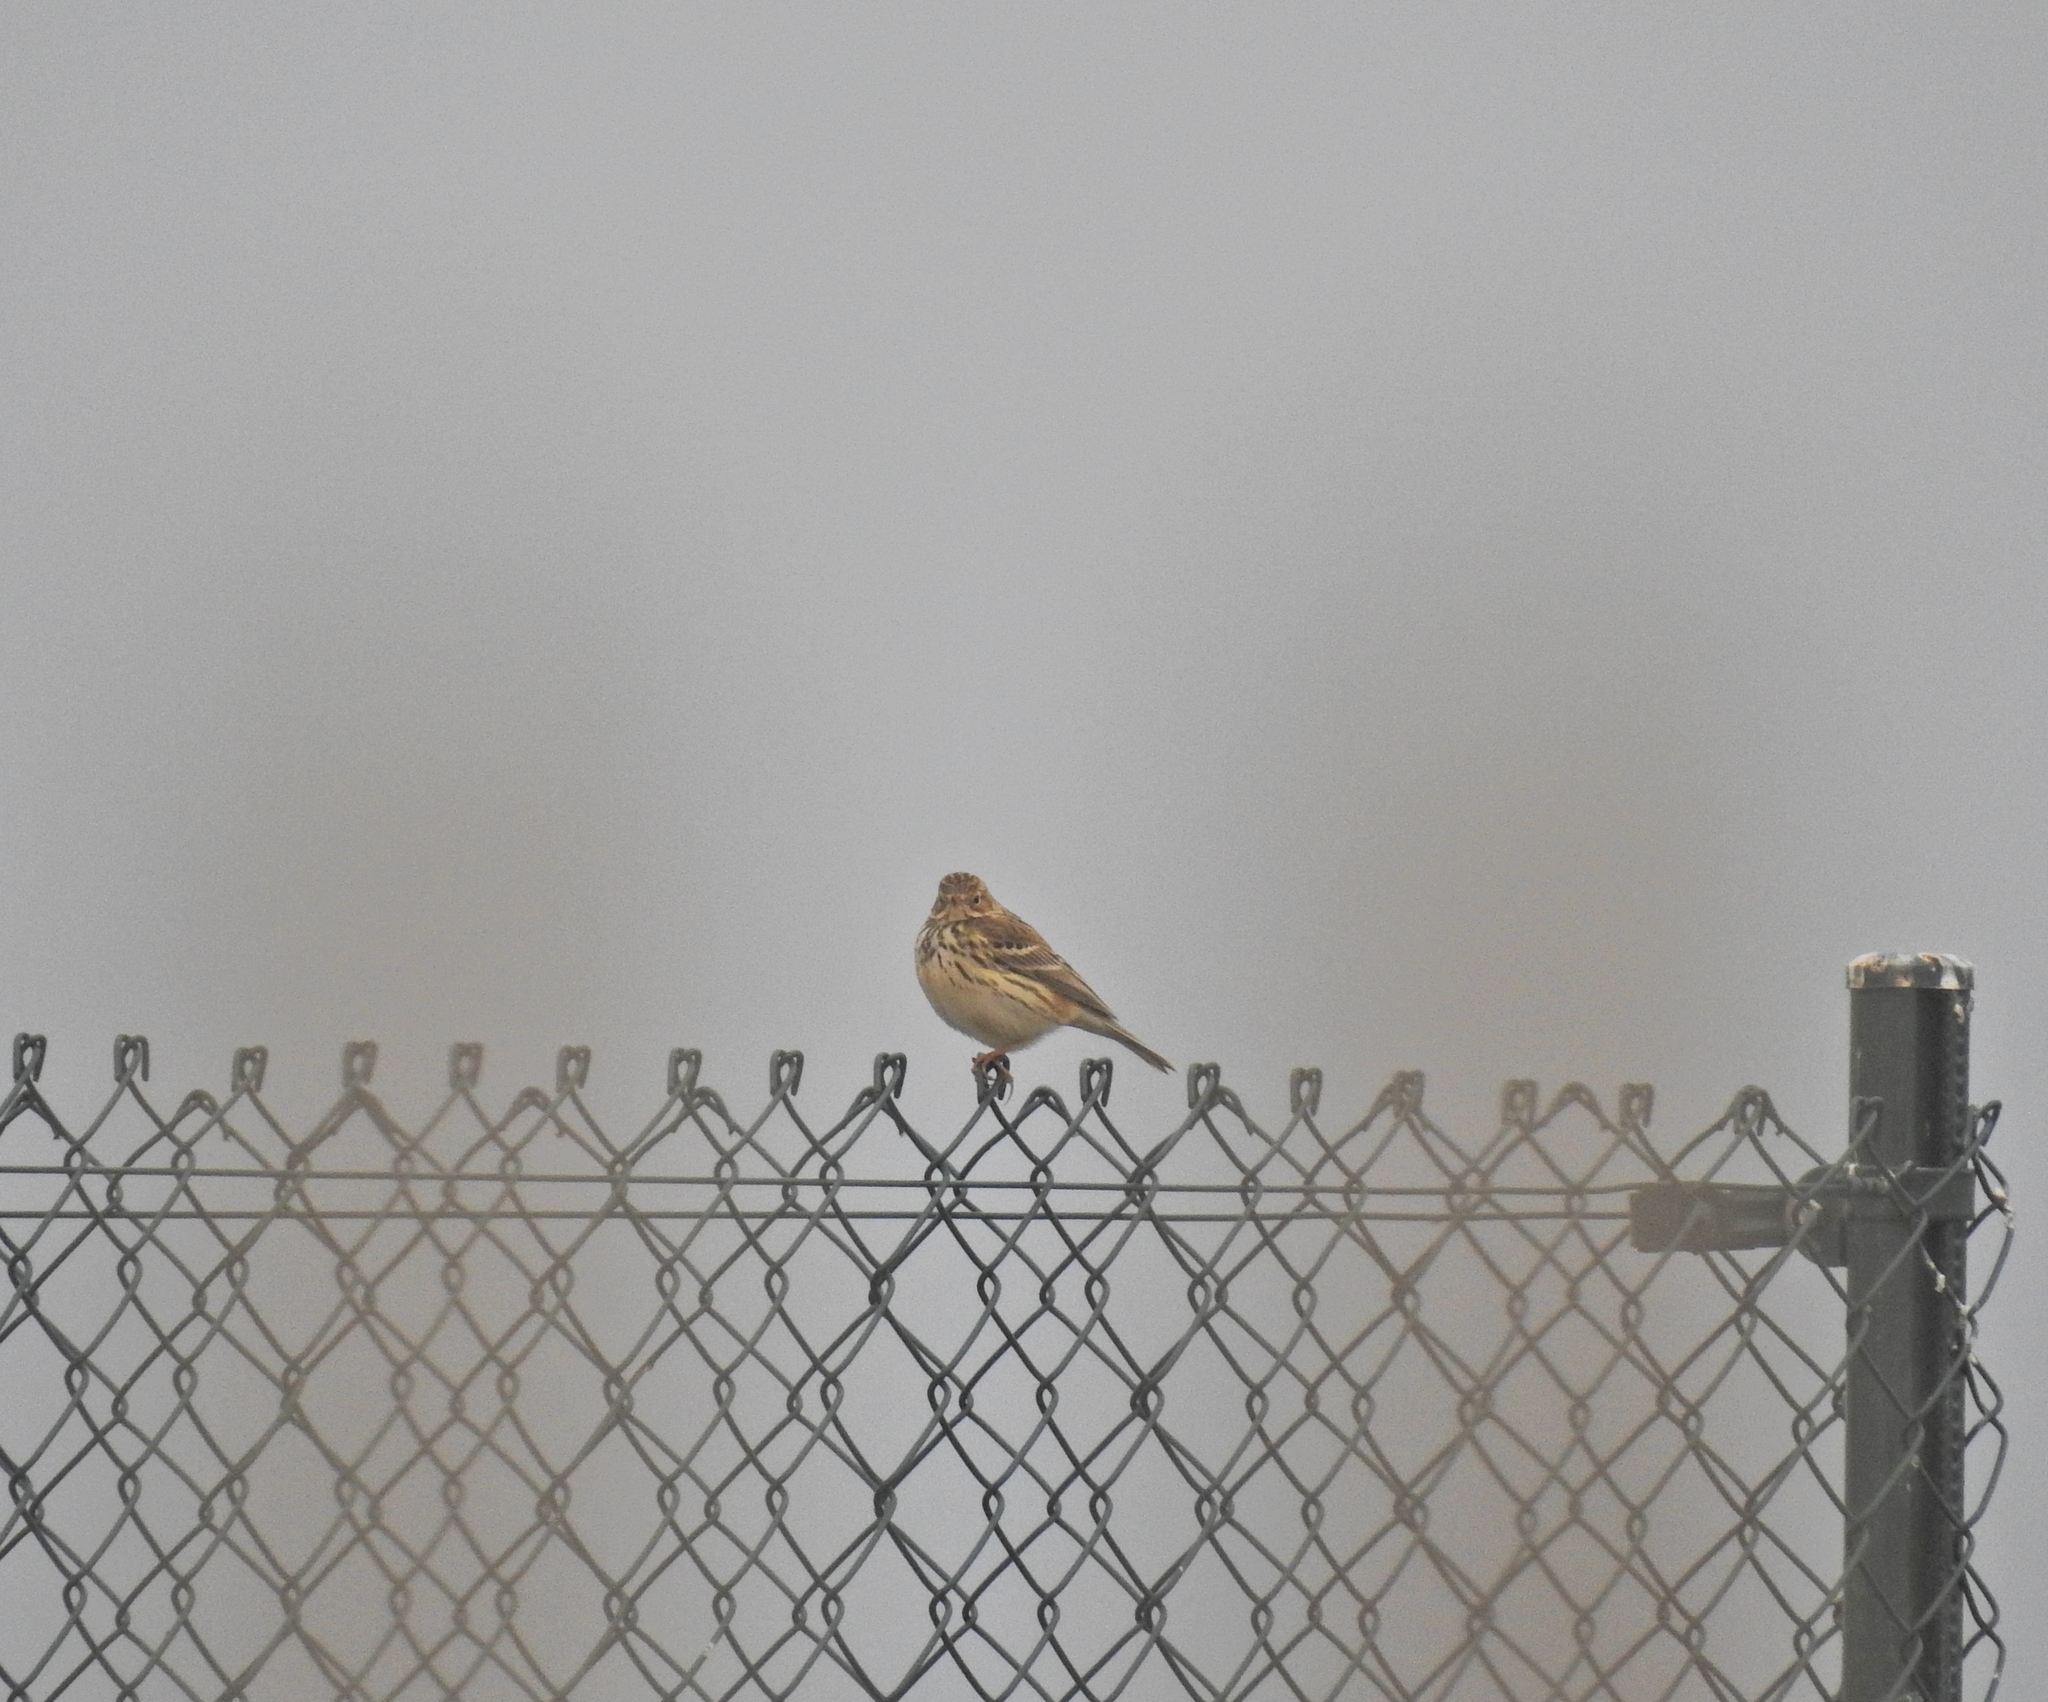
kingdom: Animalia
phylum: Chordata
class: Aves
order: Passeriformes
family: Motacillidae
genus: Anthus
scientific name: Anthus pratensis
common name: Meadow pipit
